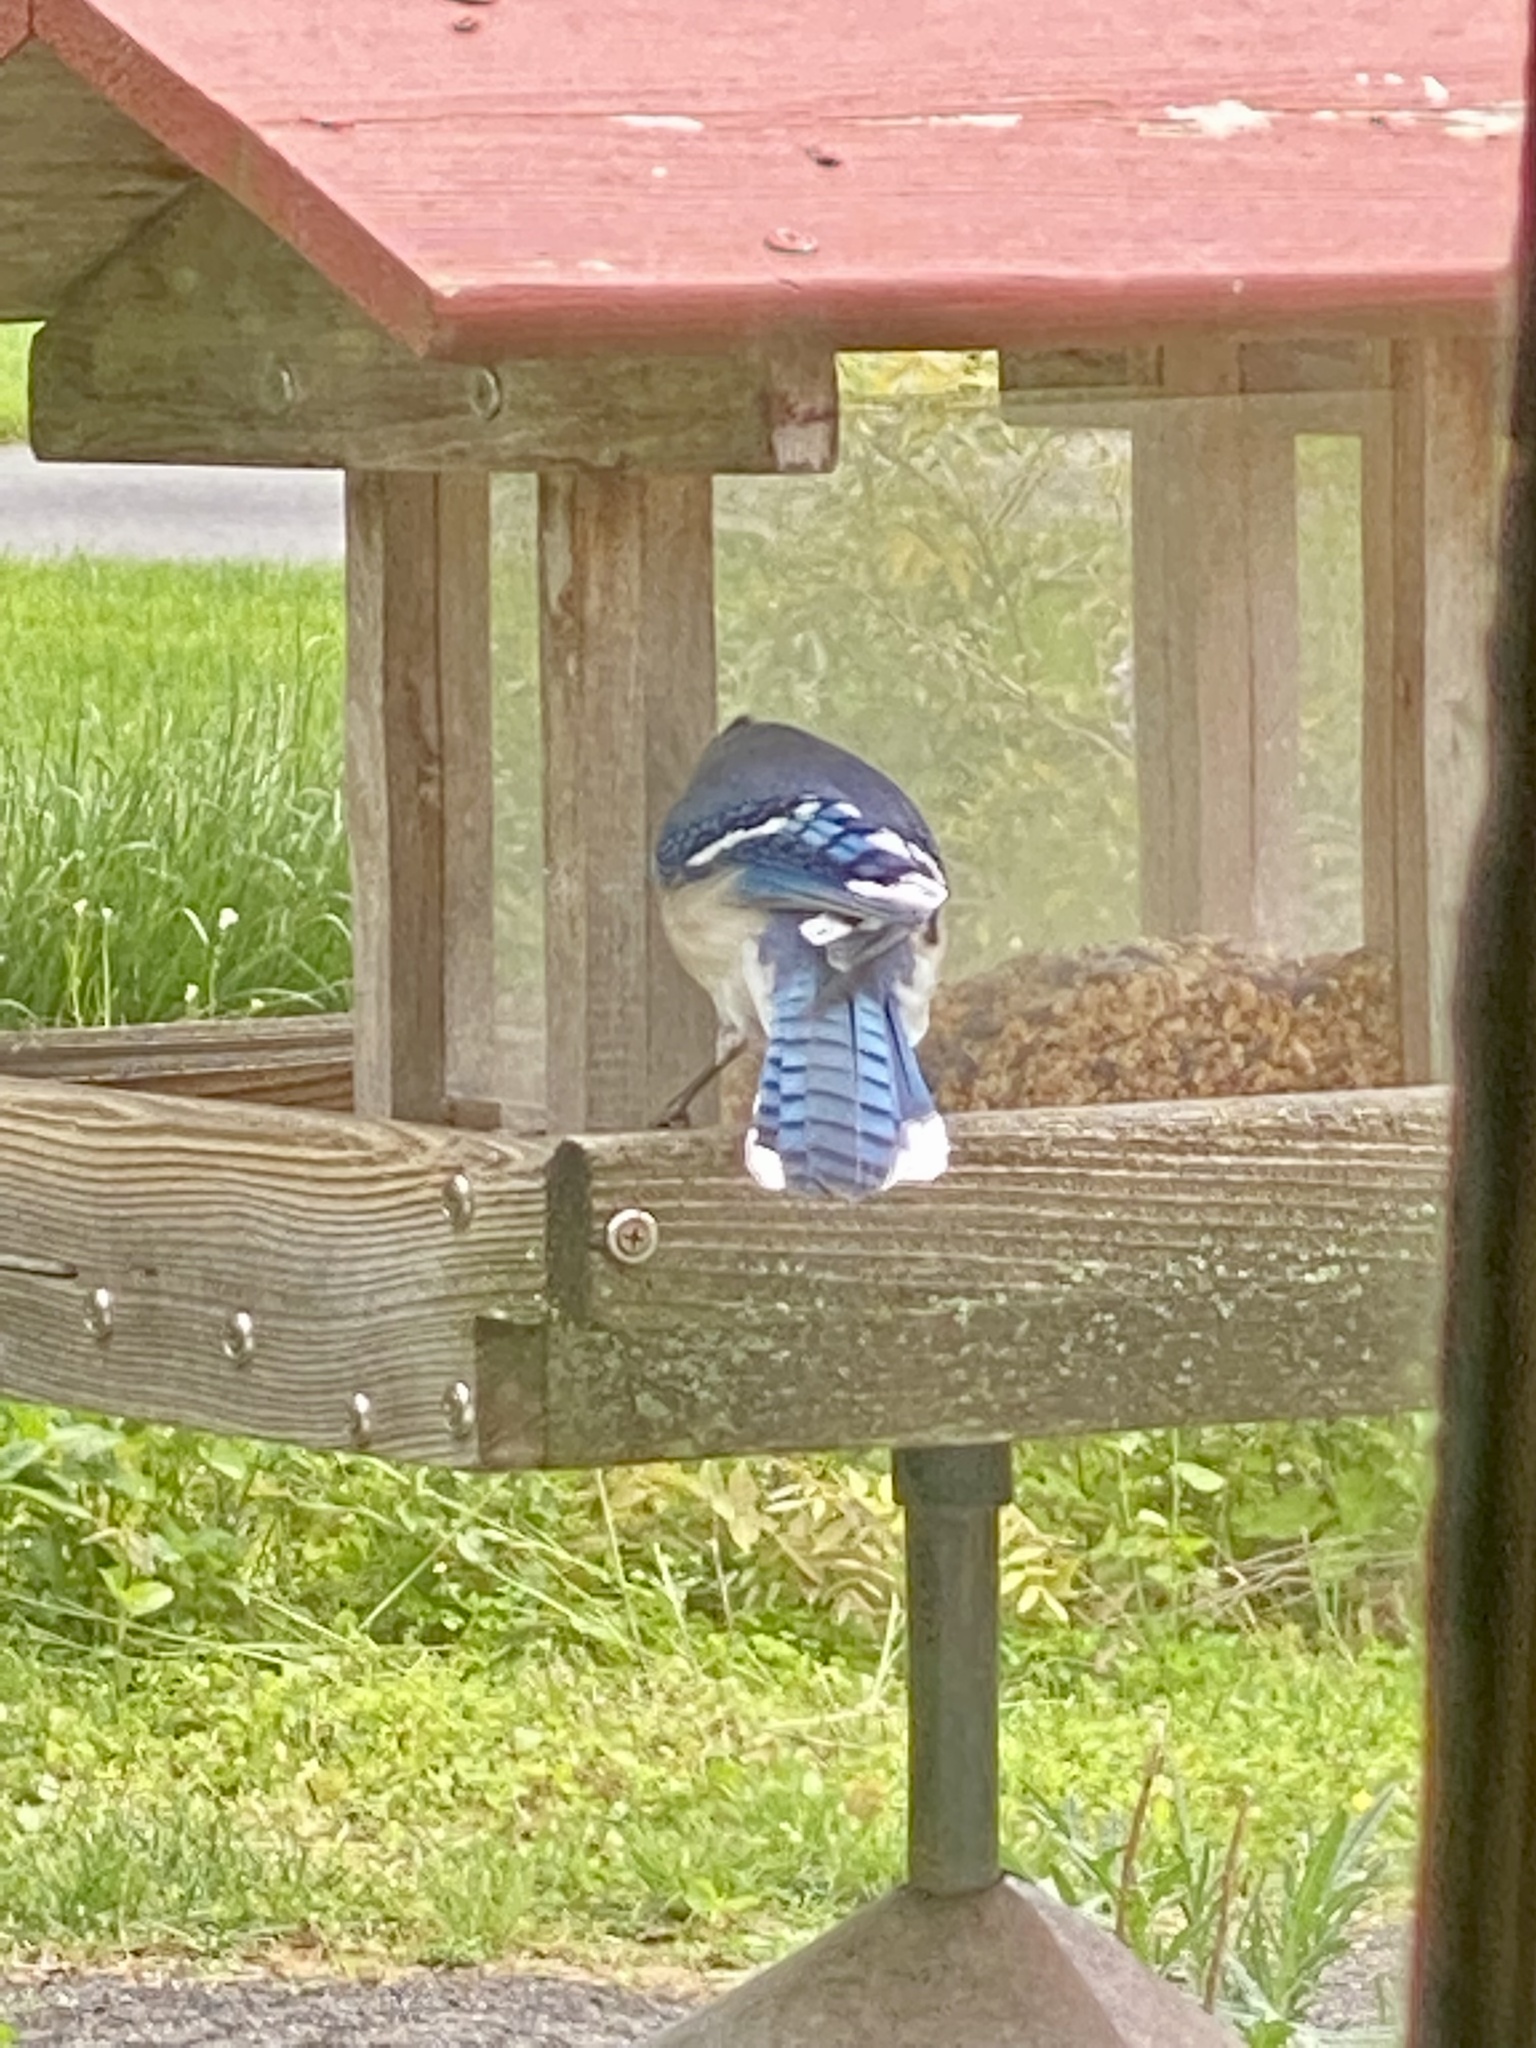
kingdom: Animalia
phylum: Chordata
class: Aves
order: Passeriformes
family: Corvidae
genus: Cyanocitta
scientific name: Cyanocitta cristata
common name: Blue jay
